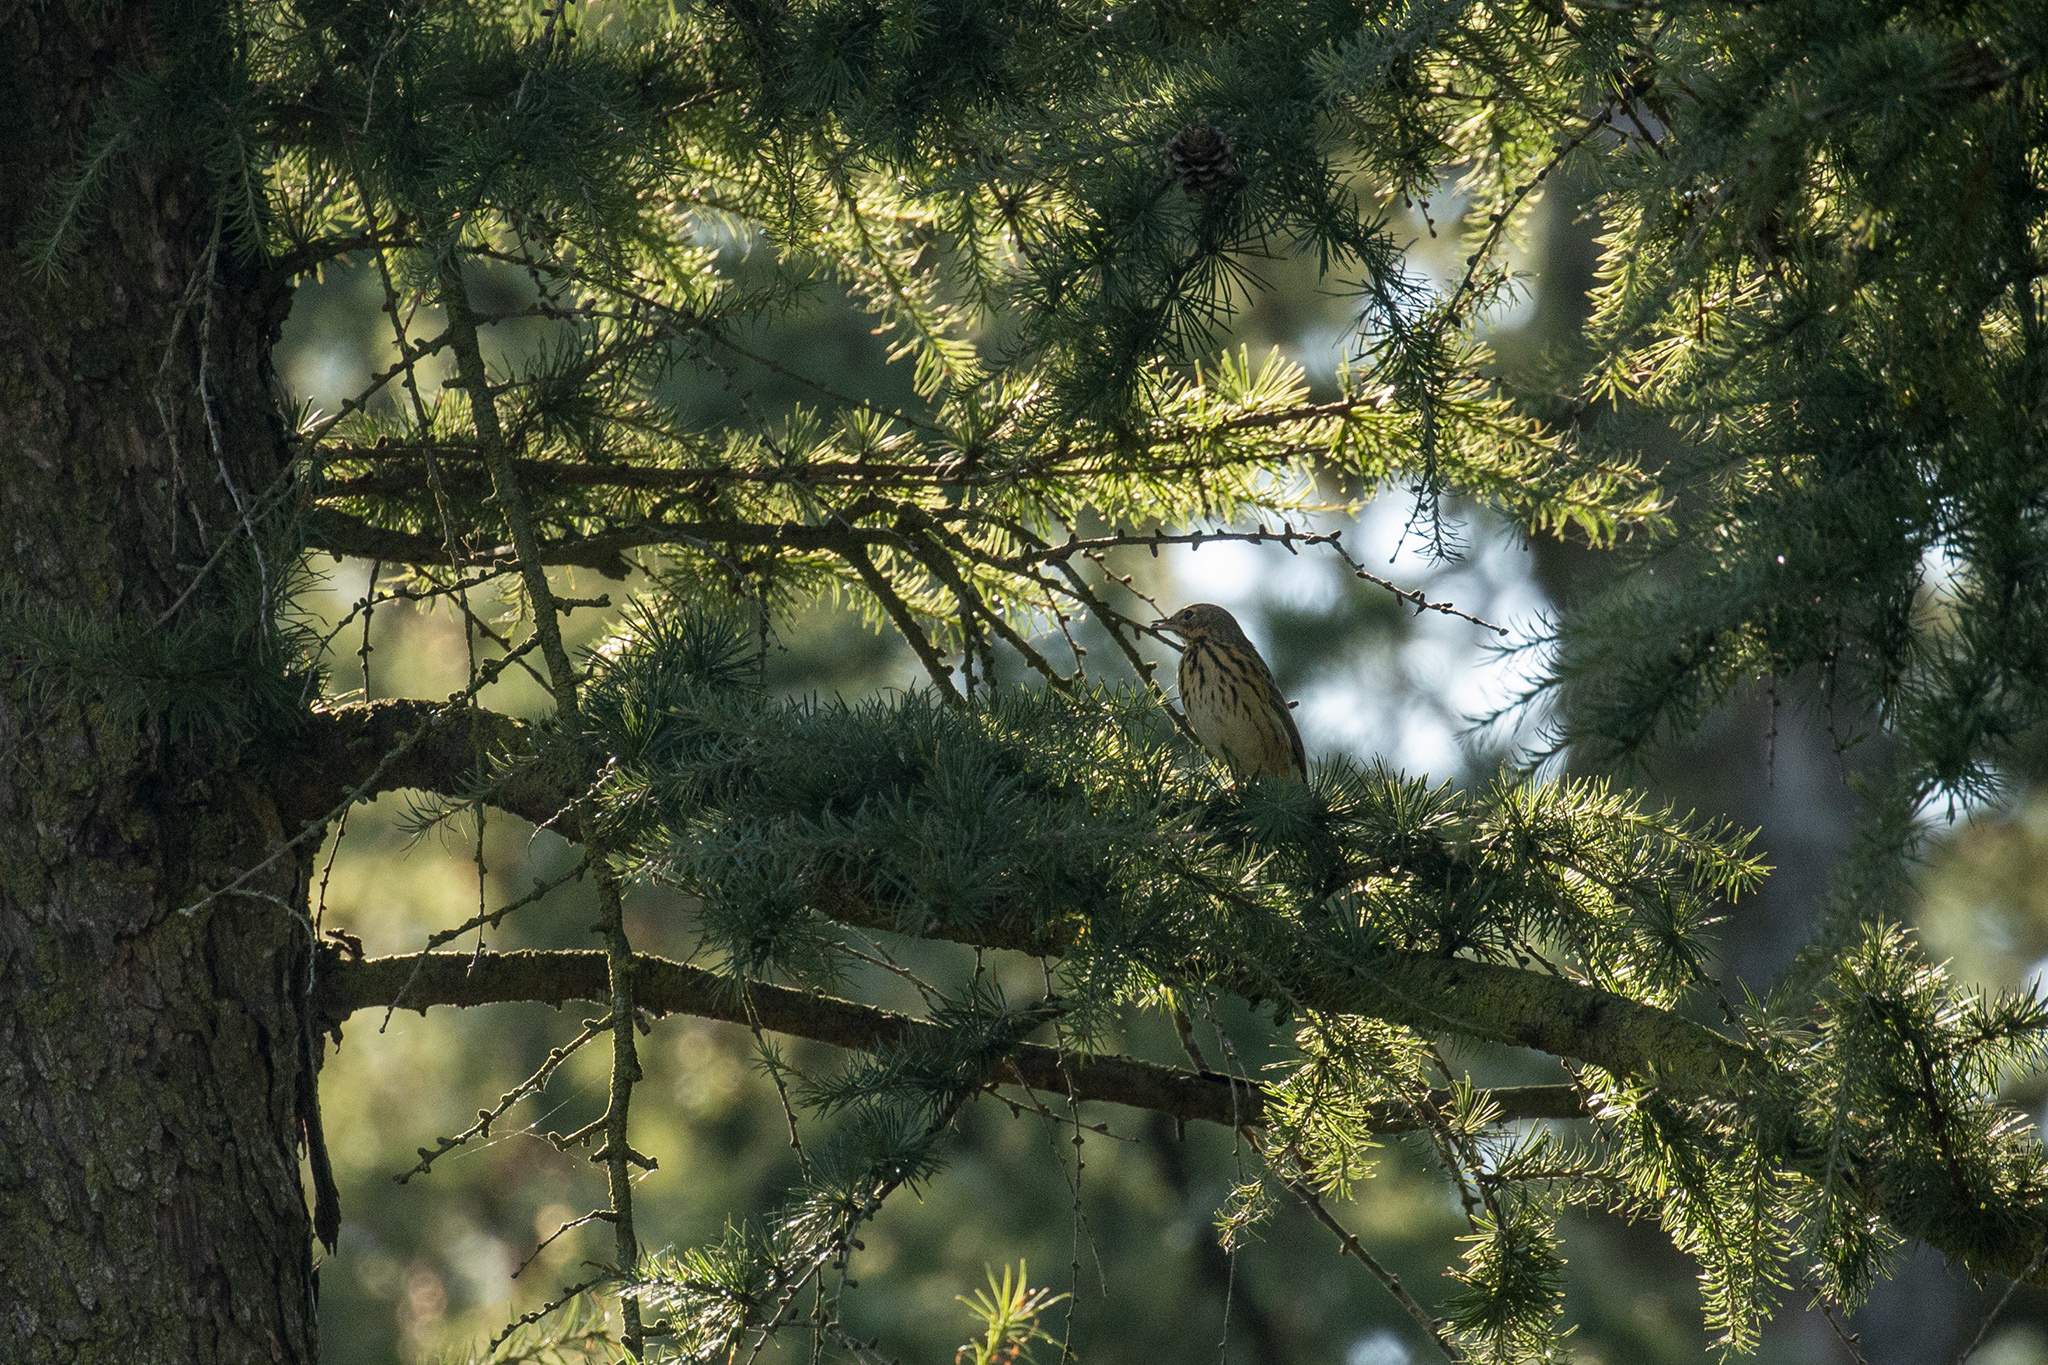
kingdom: Animalia
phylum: Chordata
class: Aves
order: Passeriformes
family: Motacillidae
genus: Anthus
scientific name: Anthus trivialis
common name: Tree pipit
